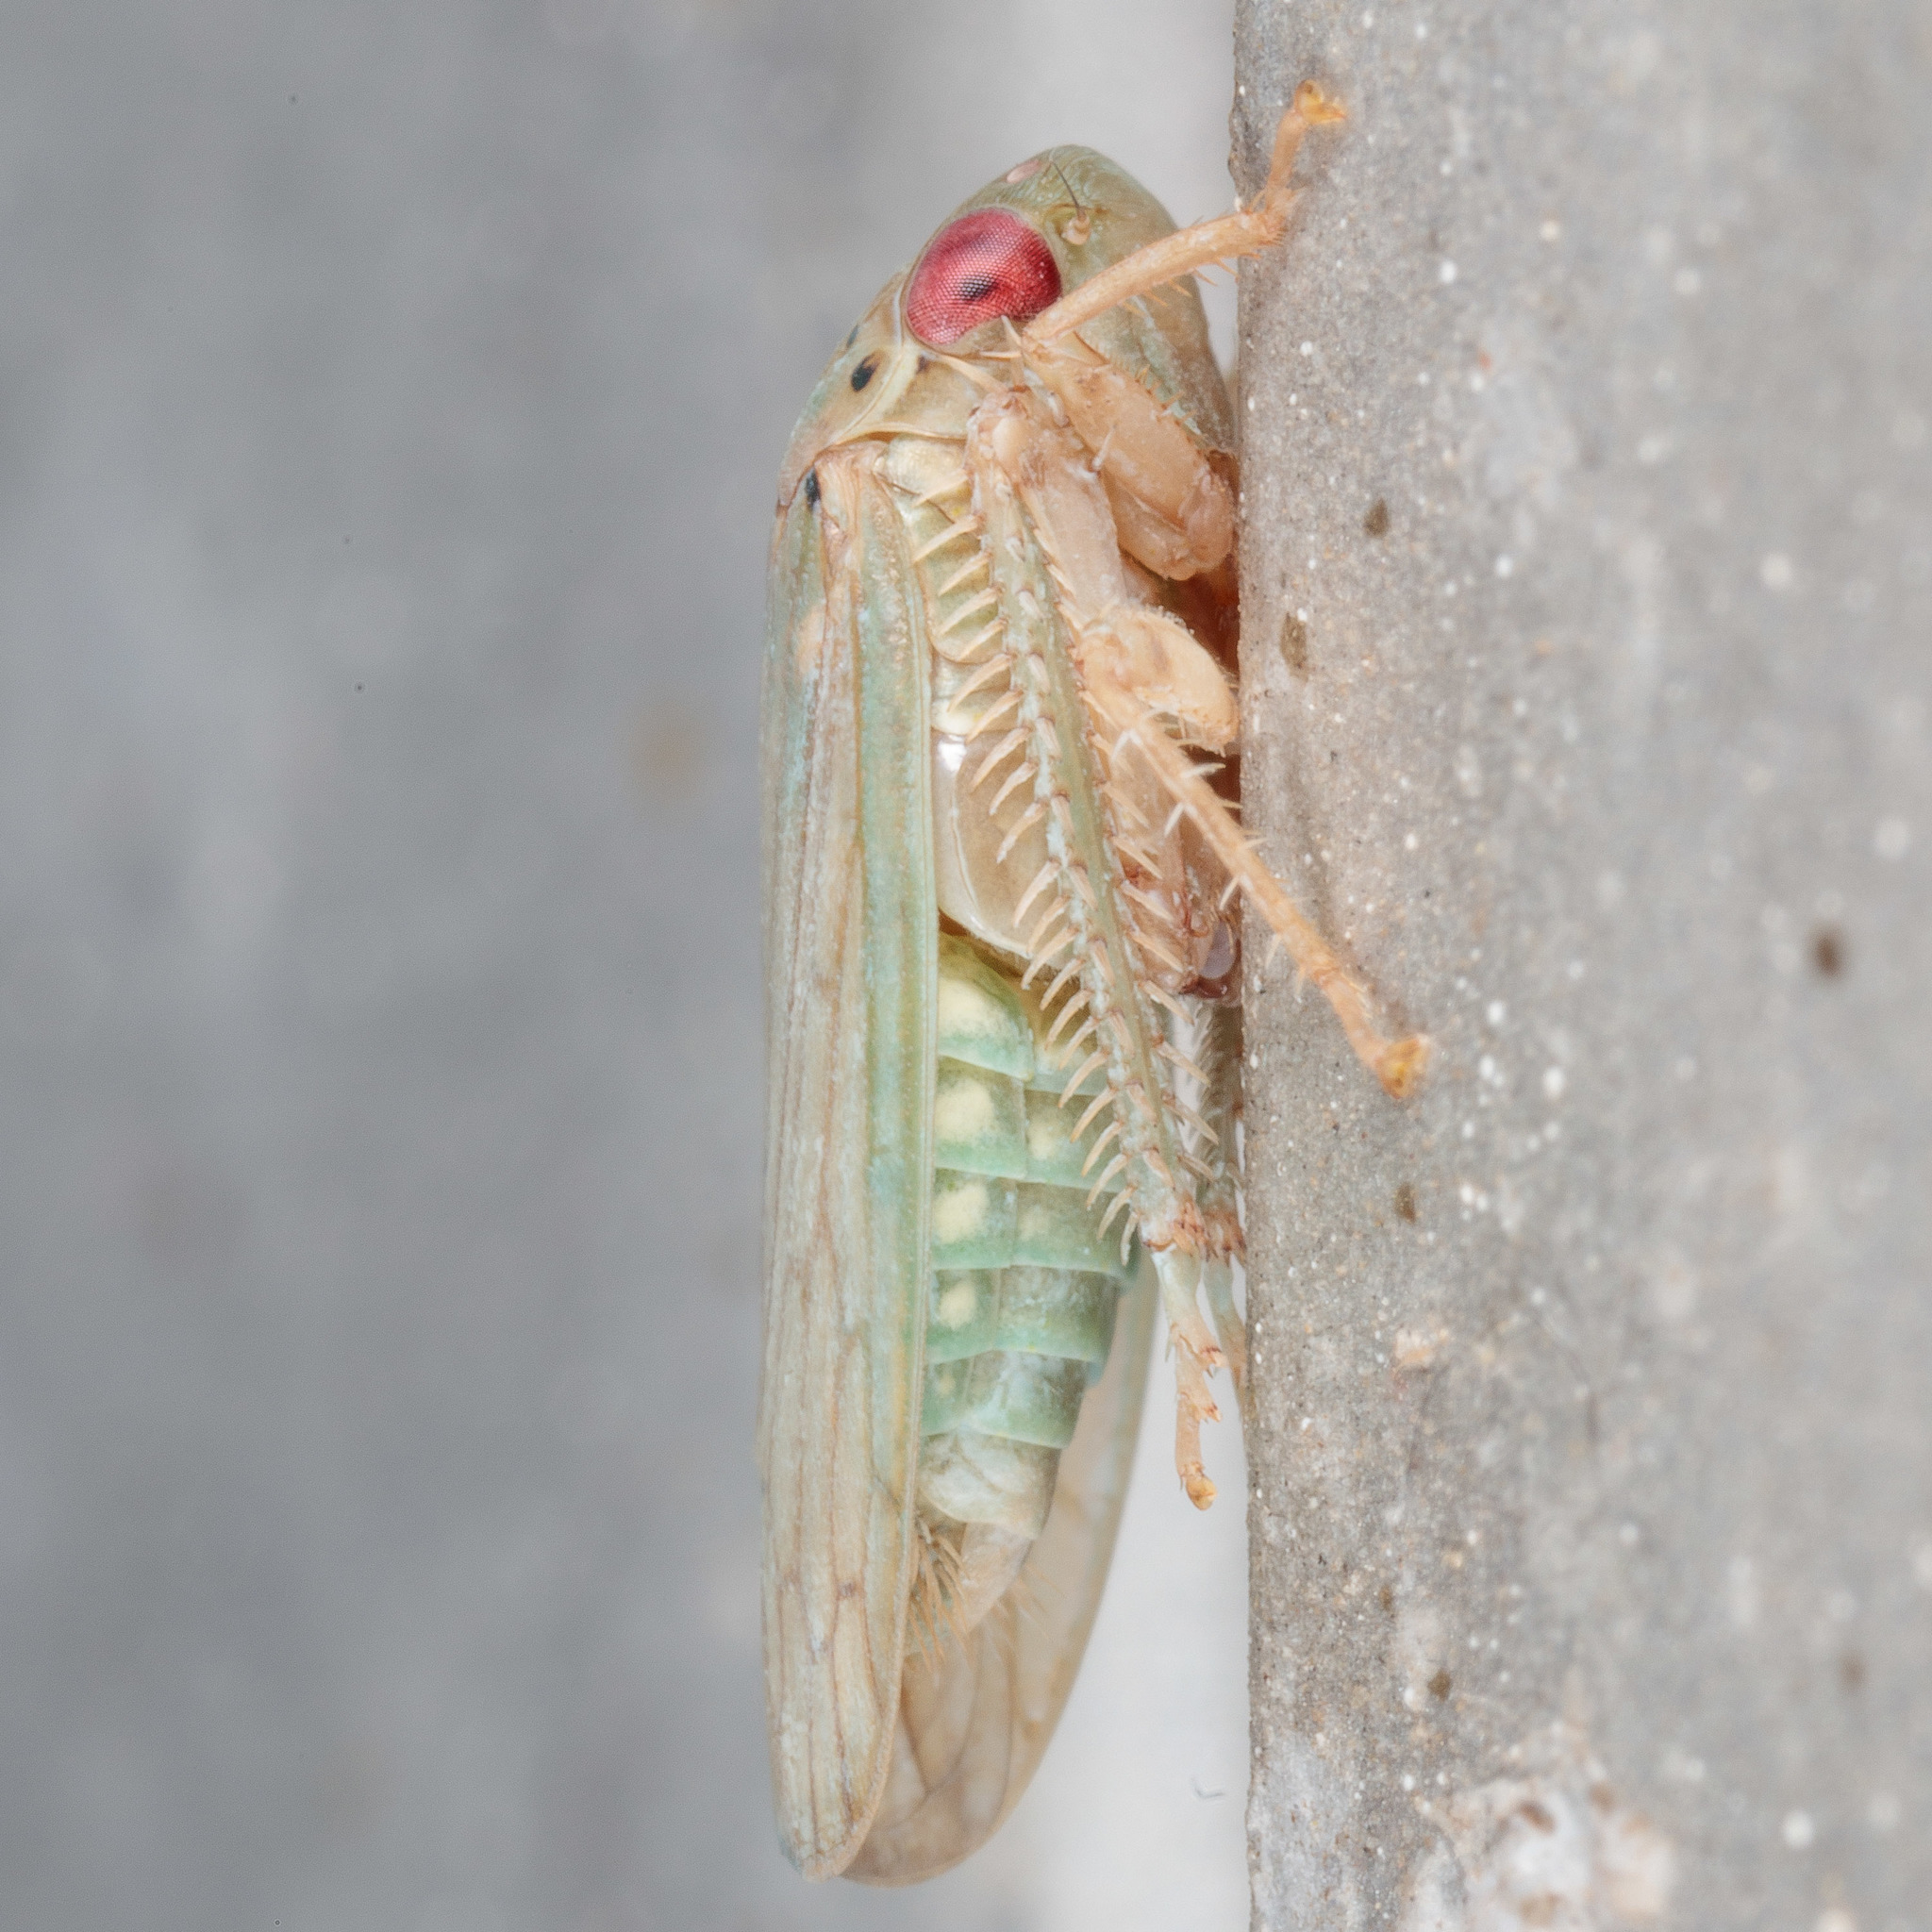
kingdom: Animalia
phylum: Arthropoda
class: Insecta
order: Hemiptera
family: Cicadellidae
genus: Polana
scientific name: Polana quadrinotata
